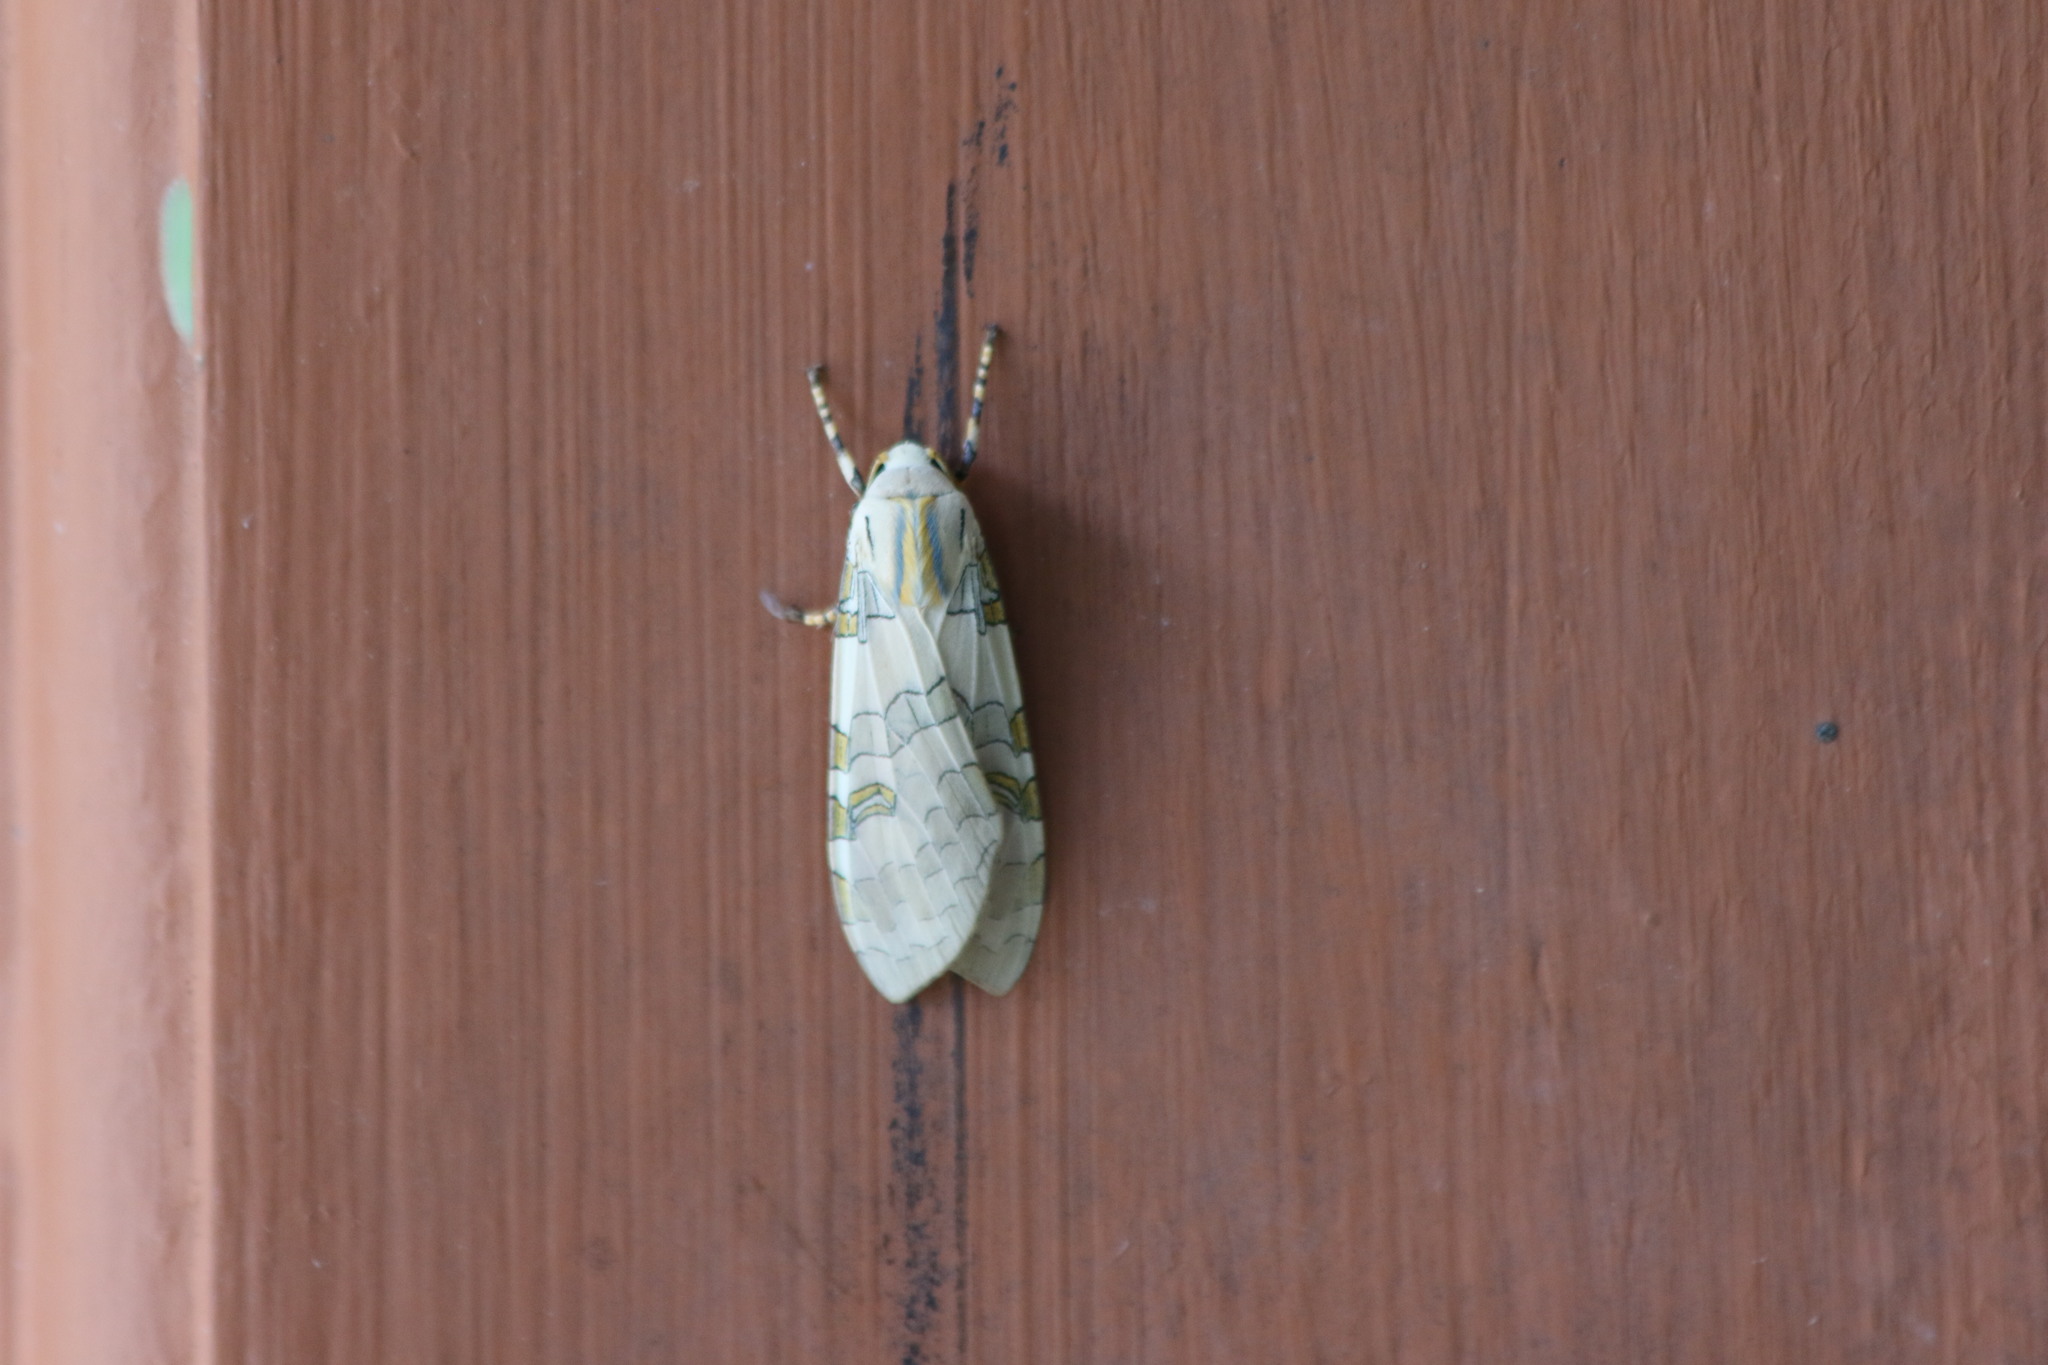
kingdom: Animalia
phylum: Arthropoda
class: Insecta
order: Lepidoptera
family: Erebidae
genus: Halysidota
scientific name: Halysidota schausi
